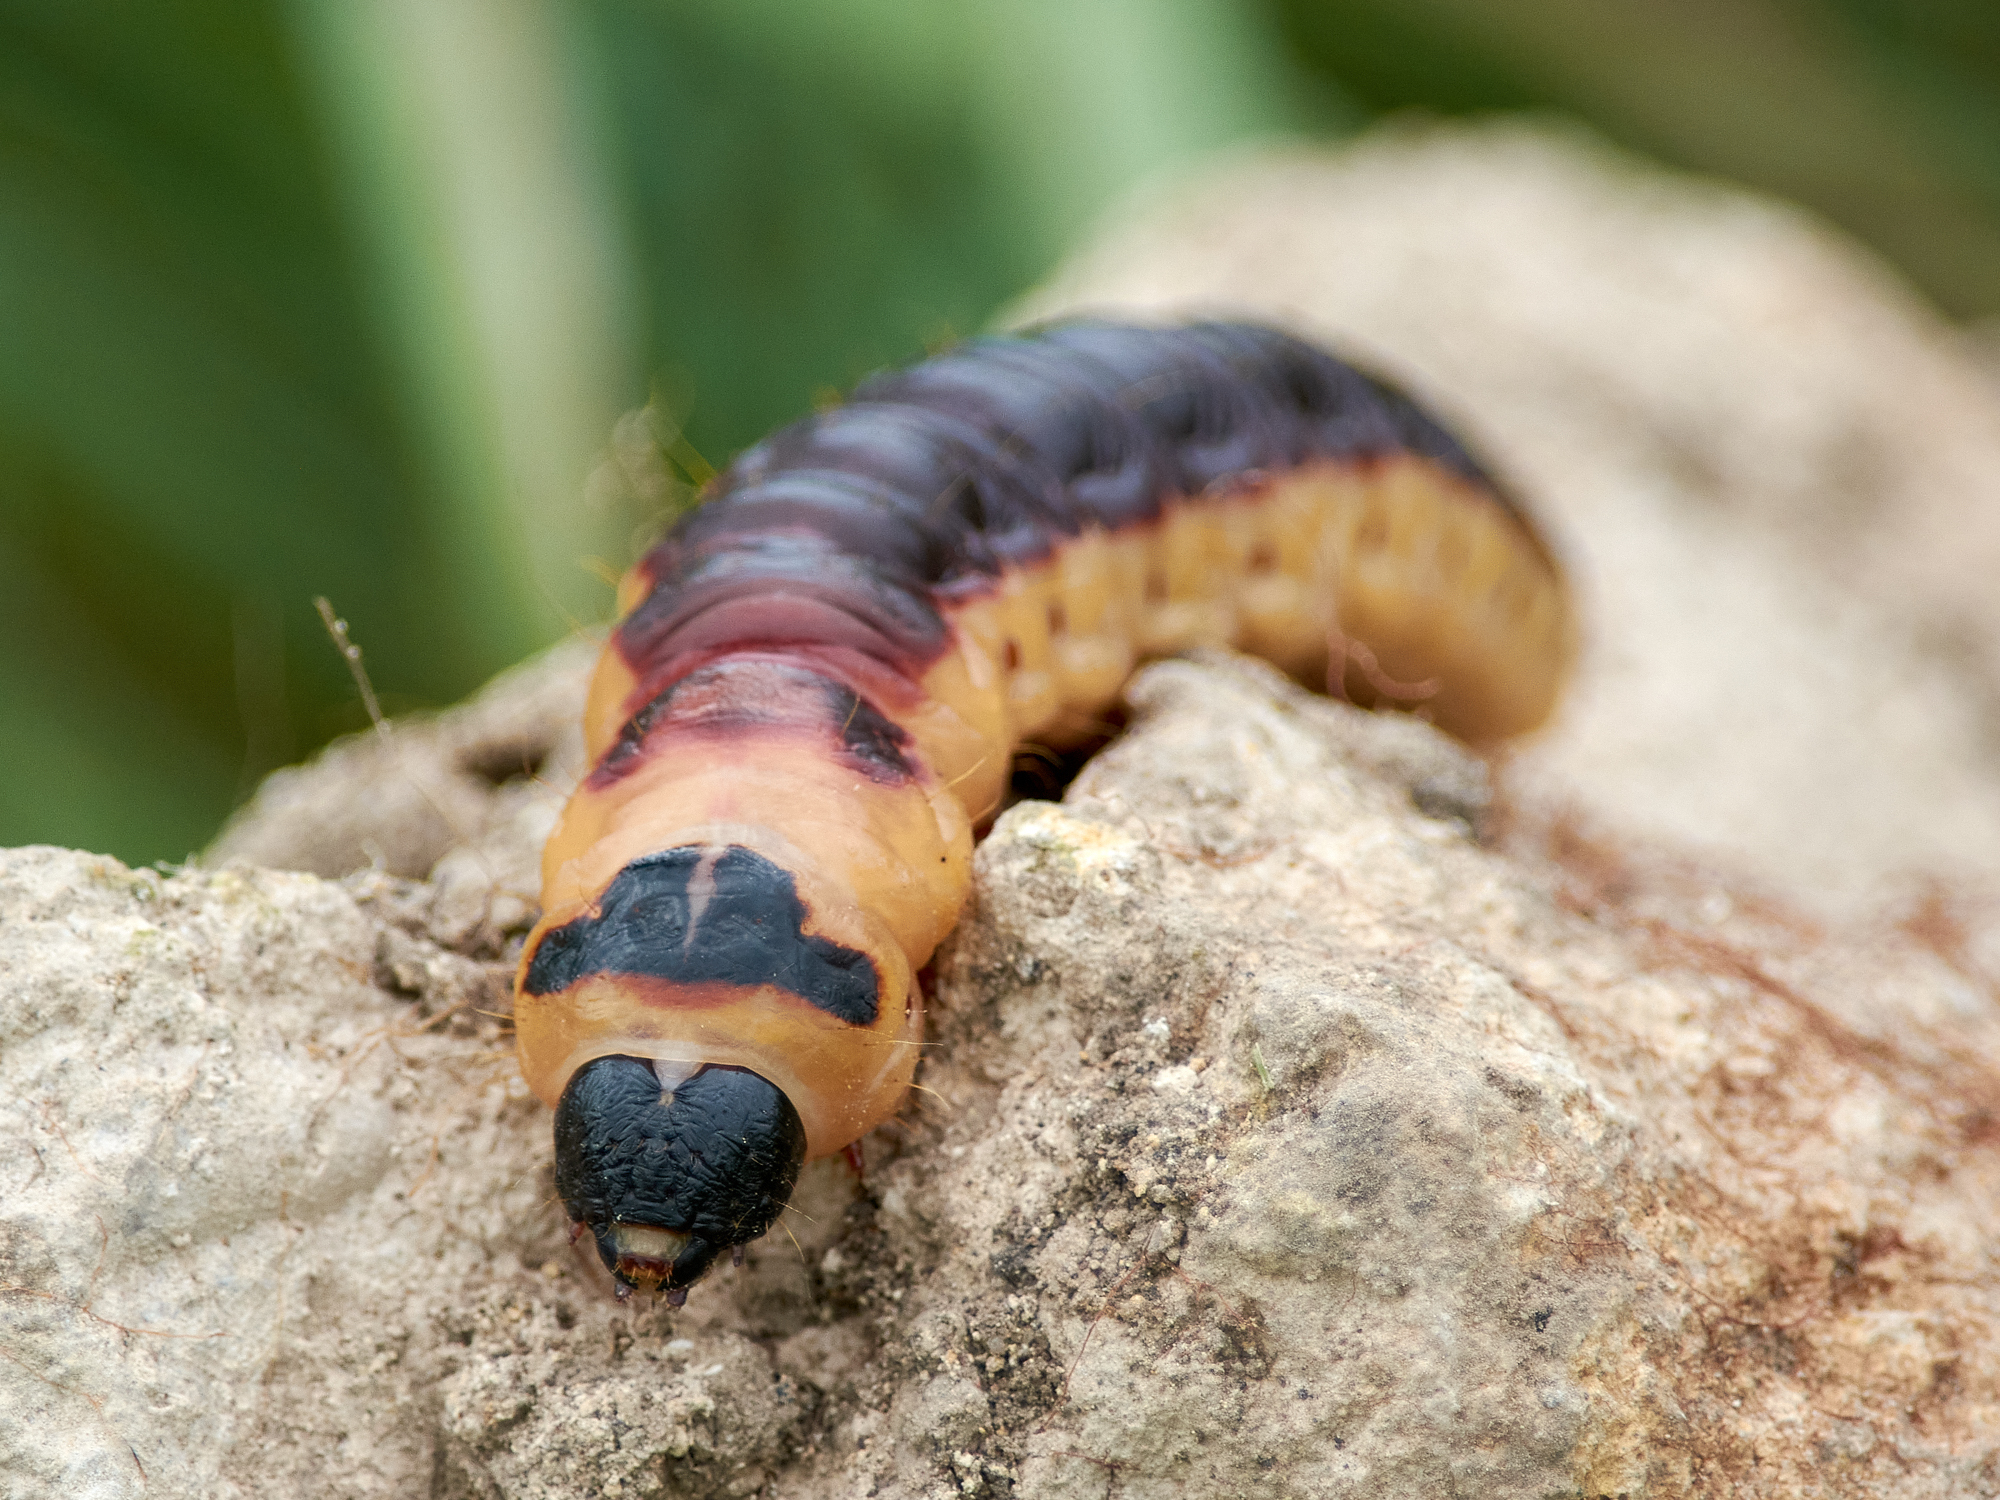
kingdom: Animalia
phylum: Arthropoda
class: Insecta
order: Lepidoptera
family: Cossidae
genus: Cossus
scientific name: Cossus cossus
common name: Goat moth
